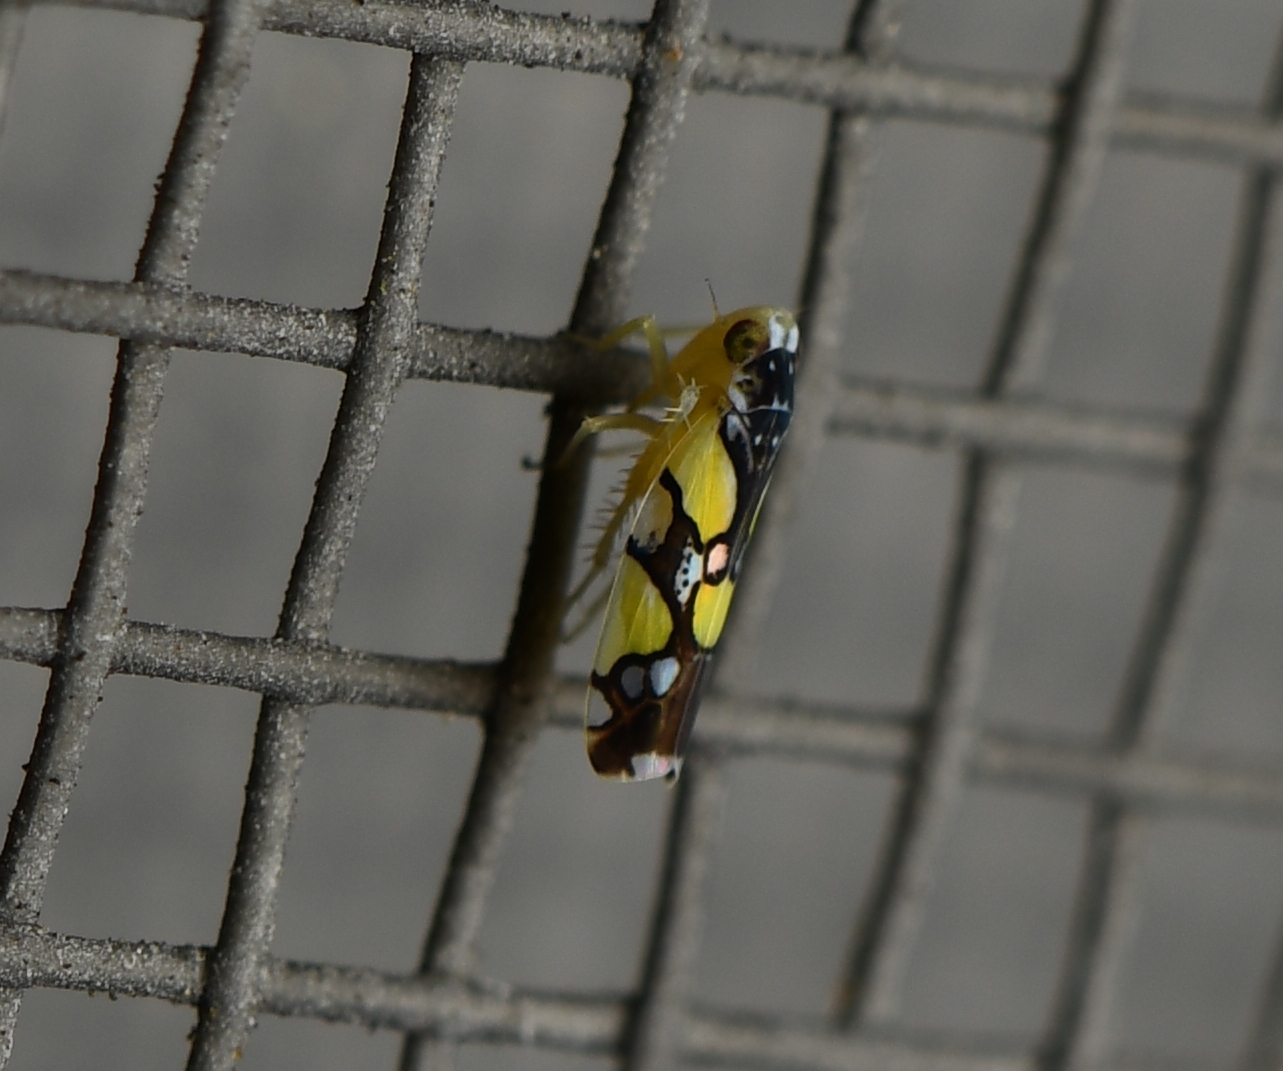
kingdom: Animalia
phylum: Arthropoda
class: Insecta
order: Hemiptera
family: Cicadellidae
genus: Protalebrella
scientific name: Protalebrella brasiliensis
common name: Brasilian leafhopper
